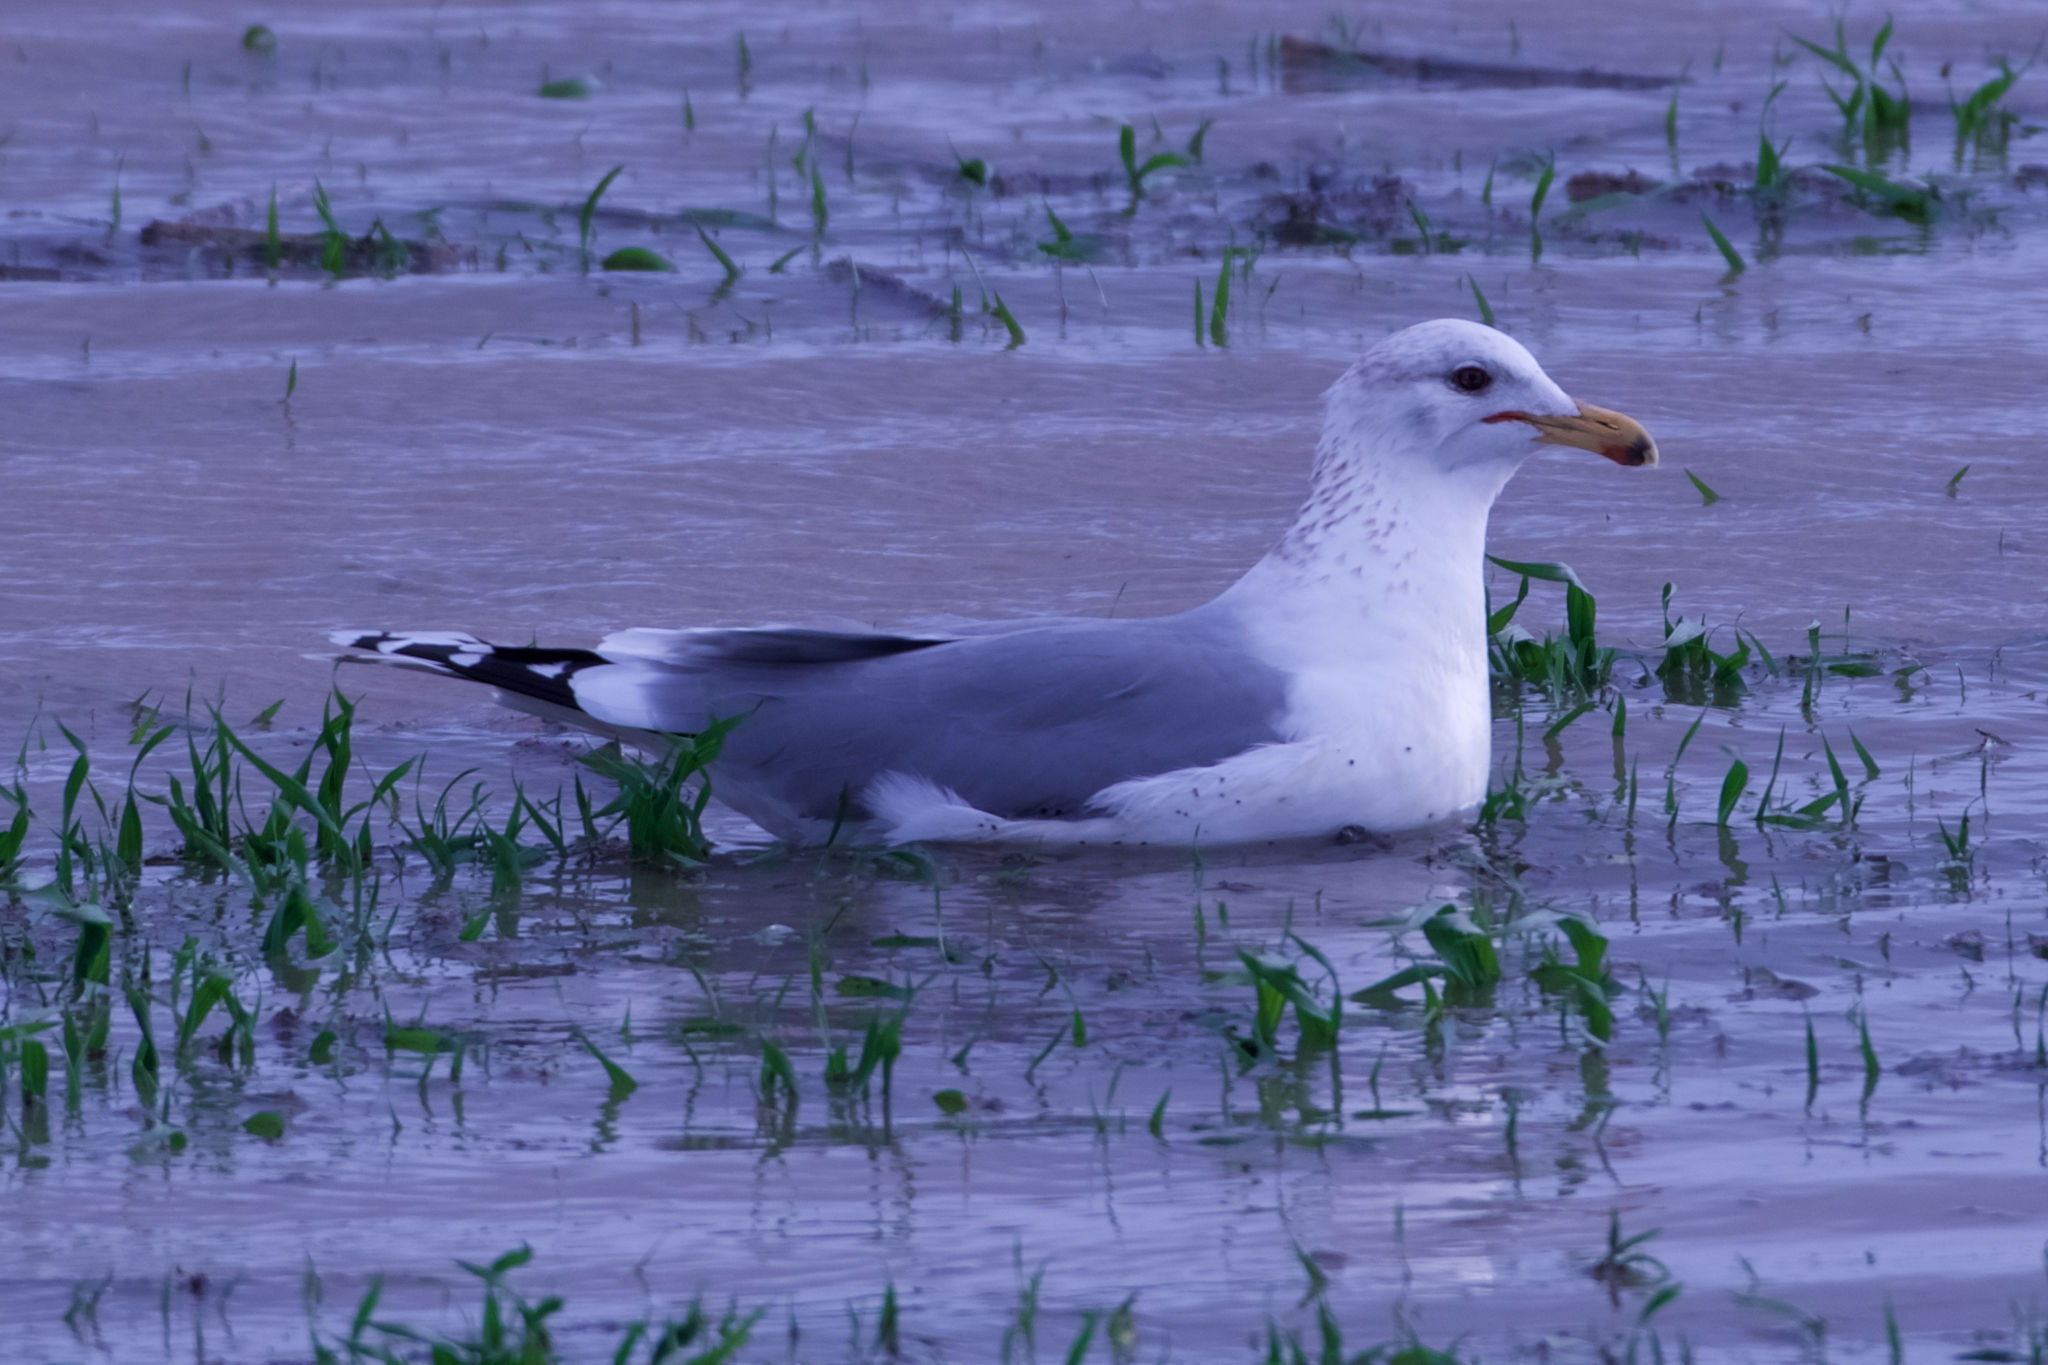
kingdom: Animalia
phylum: Chordata
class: Aves
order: Charadriiformes
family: Laridae
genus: Larus
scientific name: Larus californicus
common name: California gull
